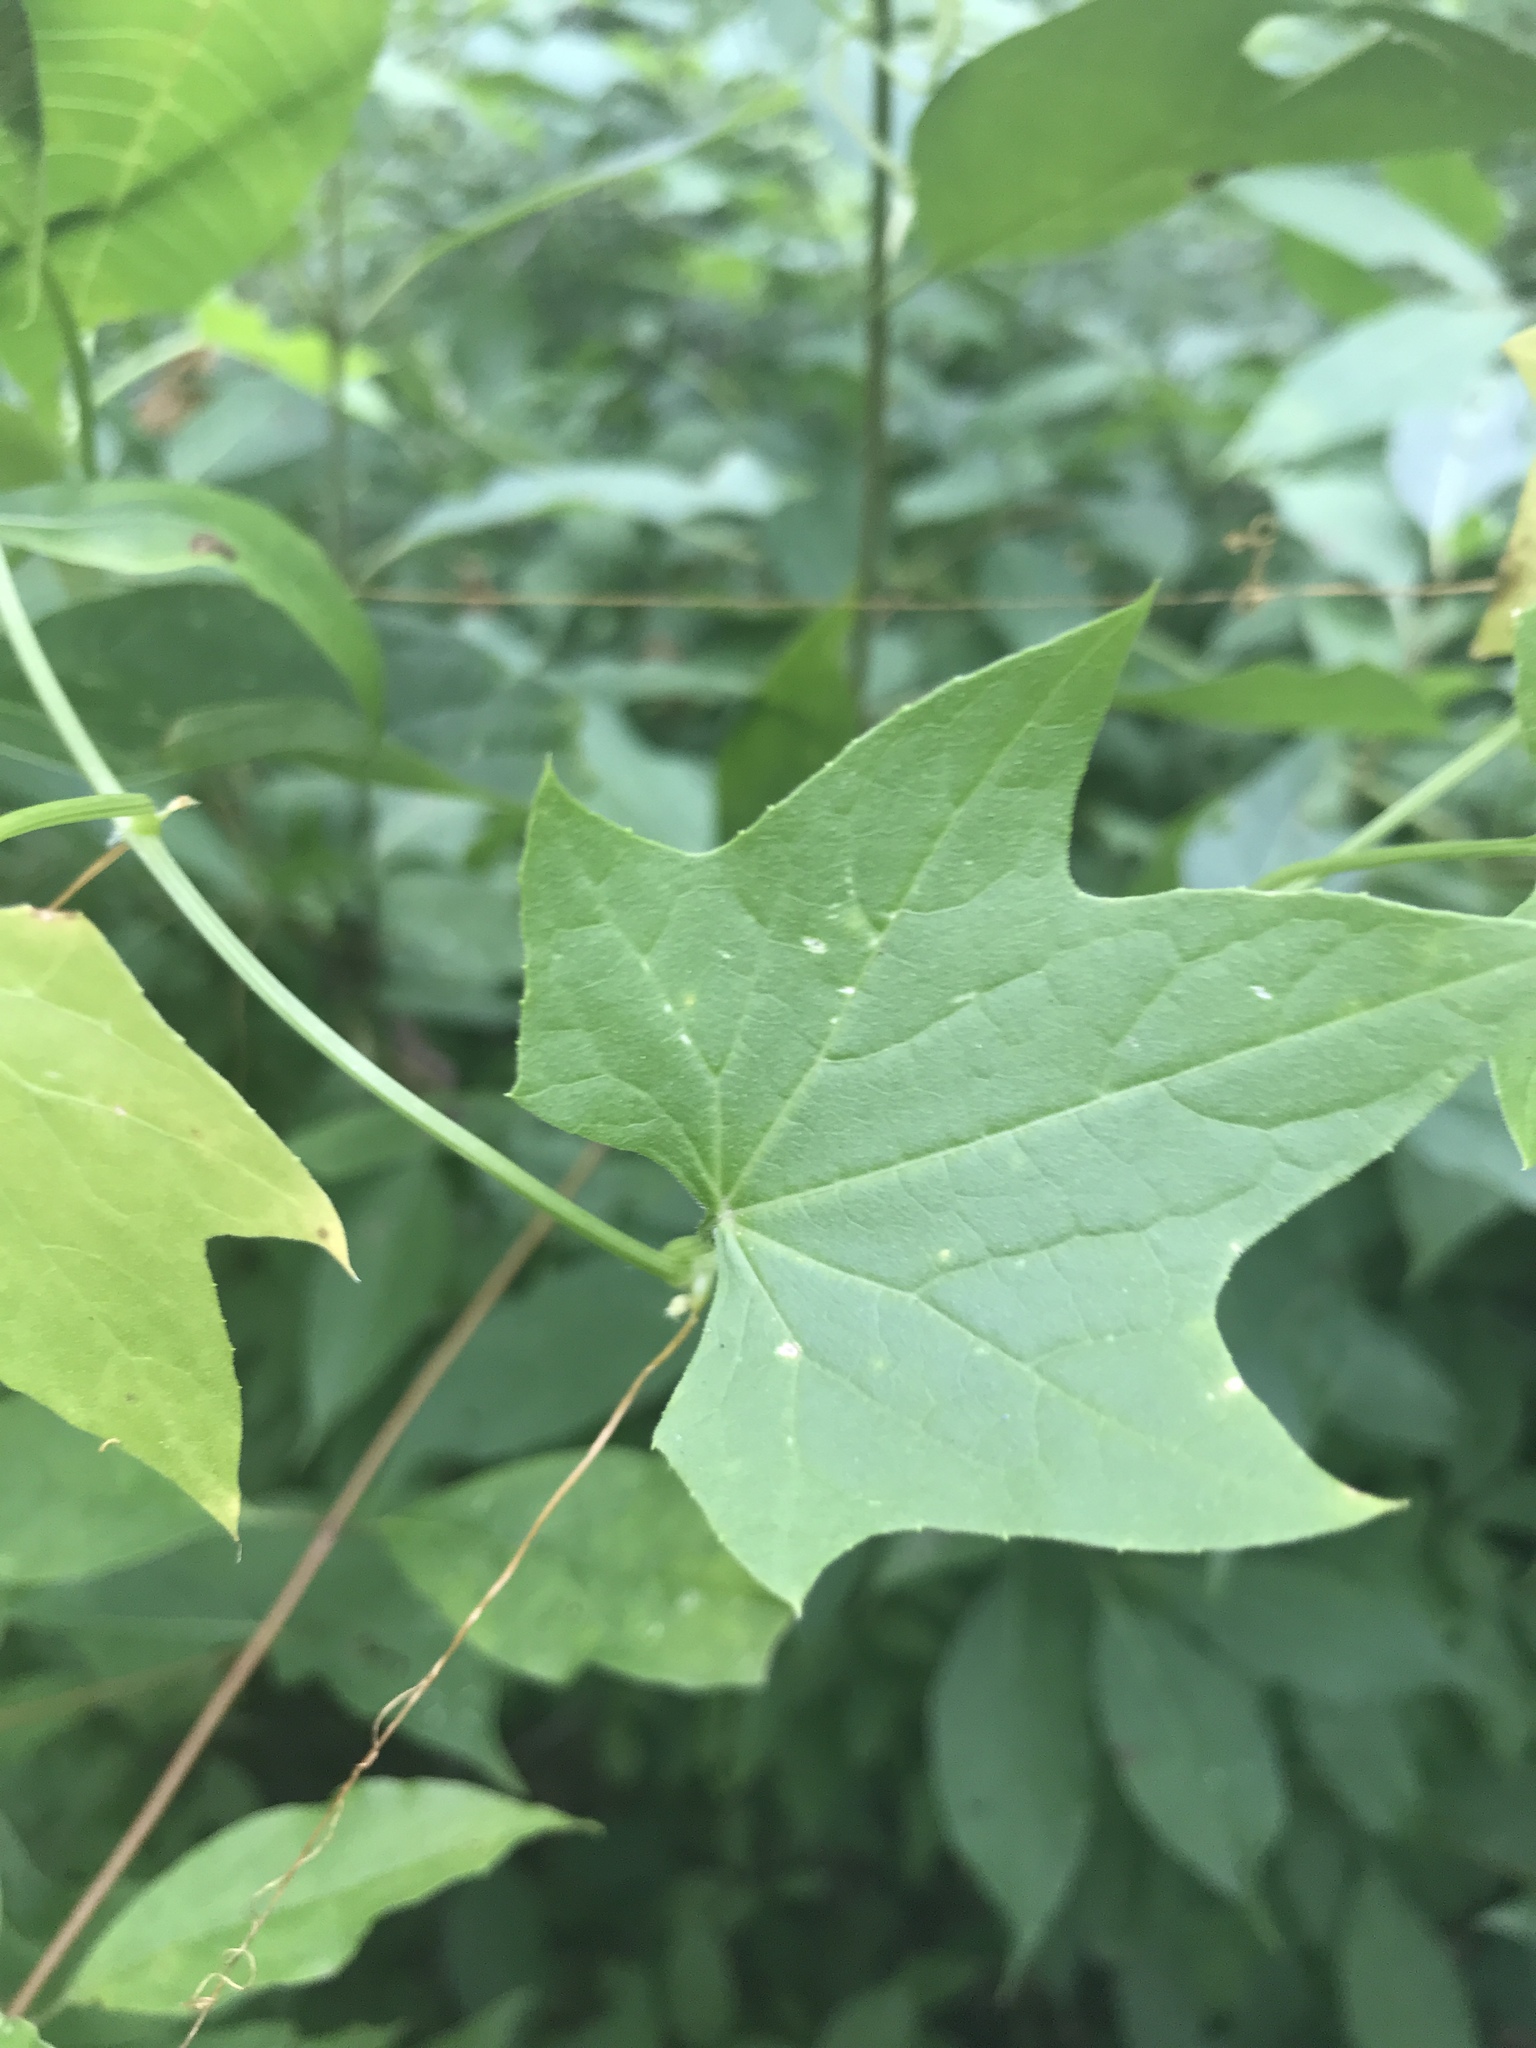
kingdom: Plantae
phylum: Tracheophyta
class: Magnoliopsida
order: Cucurbitales
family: Cucurbitaceae
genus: Echinocystis
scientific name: Echinocystis lobata
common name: Wild cucumber
